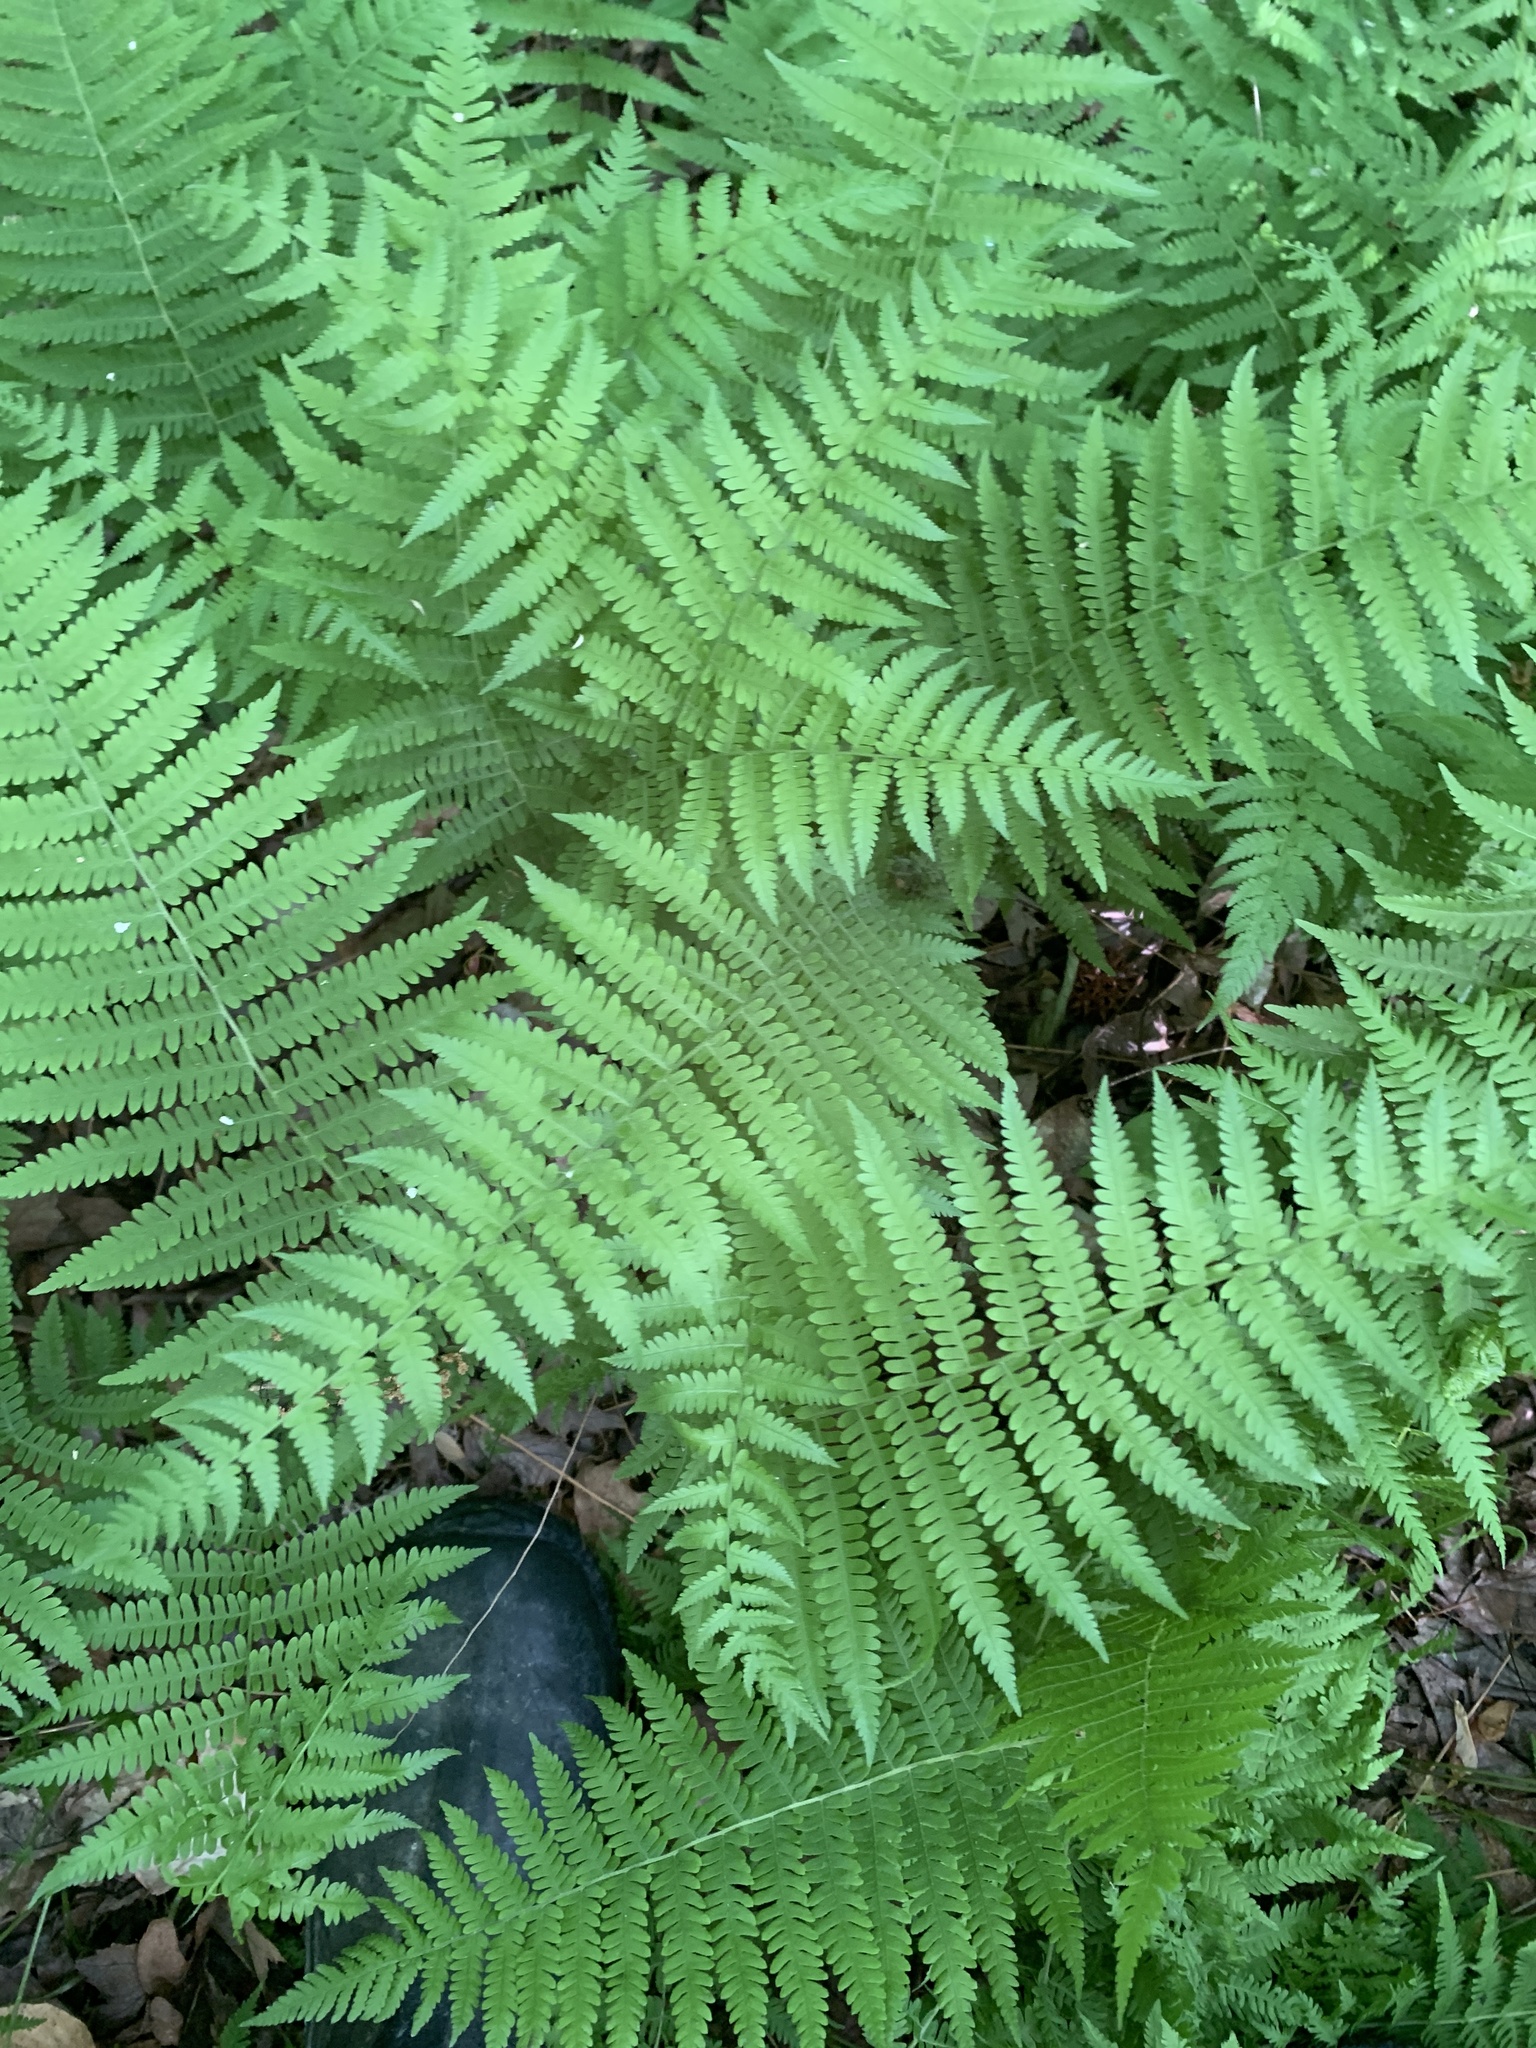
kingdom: Plantae
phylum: Tracheophyta
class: Polypodiopsida
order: Polypodiales
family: Thelypteridaceae
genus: Amauropelta
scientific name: Amauropelta noveboracensis
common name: New york fern
